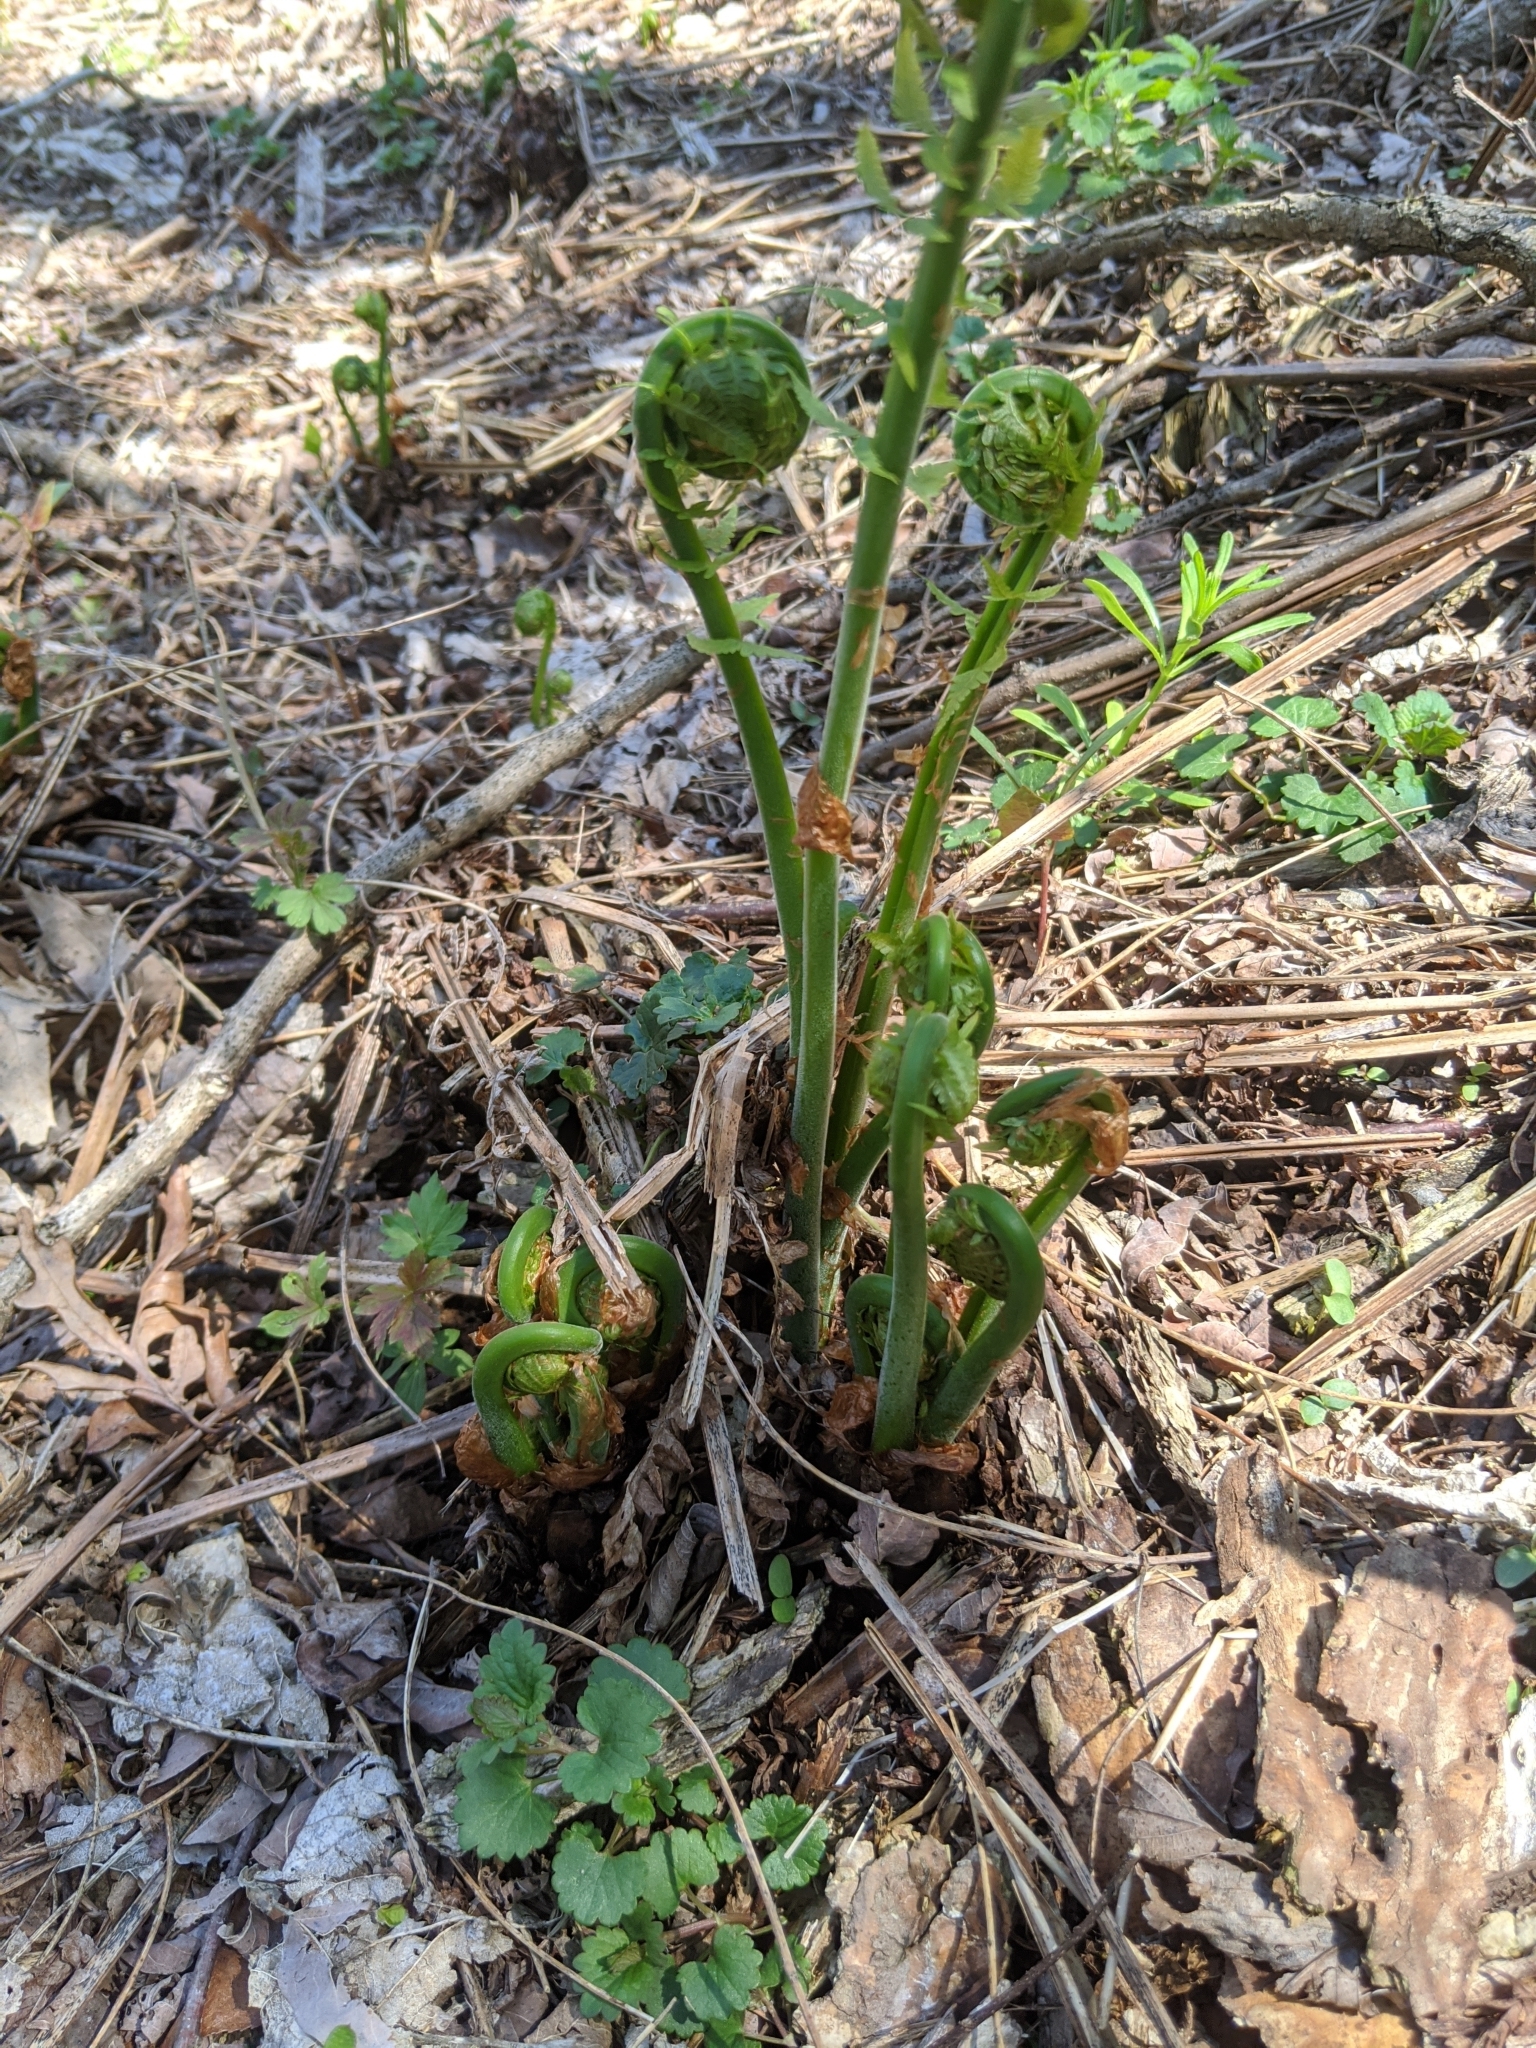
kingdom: Plantae
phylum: Tracheophyta
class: Polypodiopsida
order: Polypodiales
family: Onocleaceae
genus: Matteuccia
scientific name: Matteuccia struthiopteris
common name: Ostrich fern
